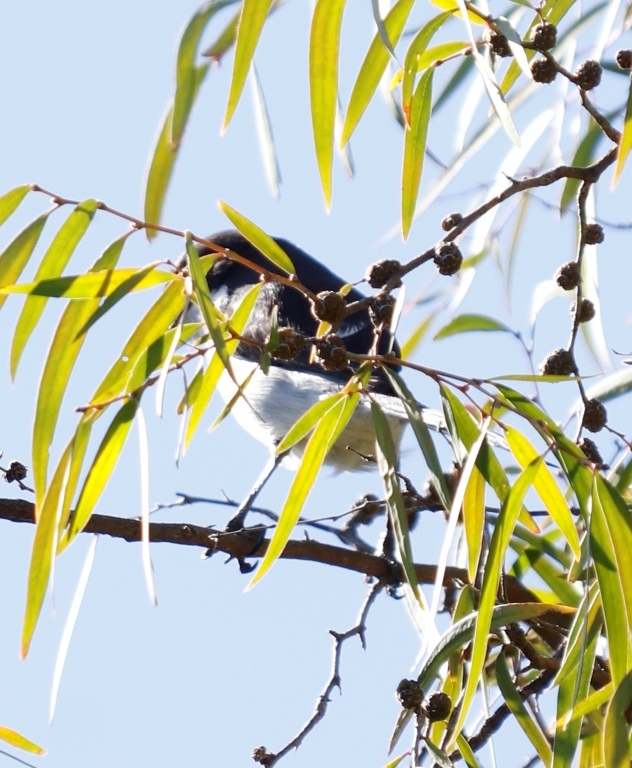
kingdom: Animalia
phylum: Chordata
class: Aves
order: Passeriformes
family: Laniidae
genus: Lanius
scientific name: Lanius collaris
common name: Southern fiscal
